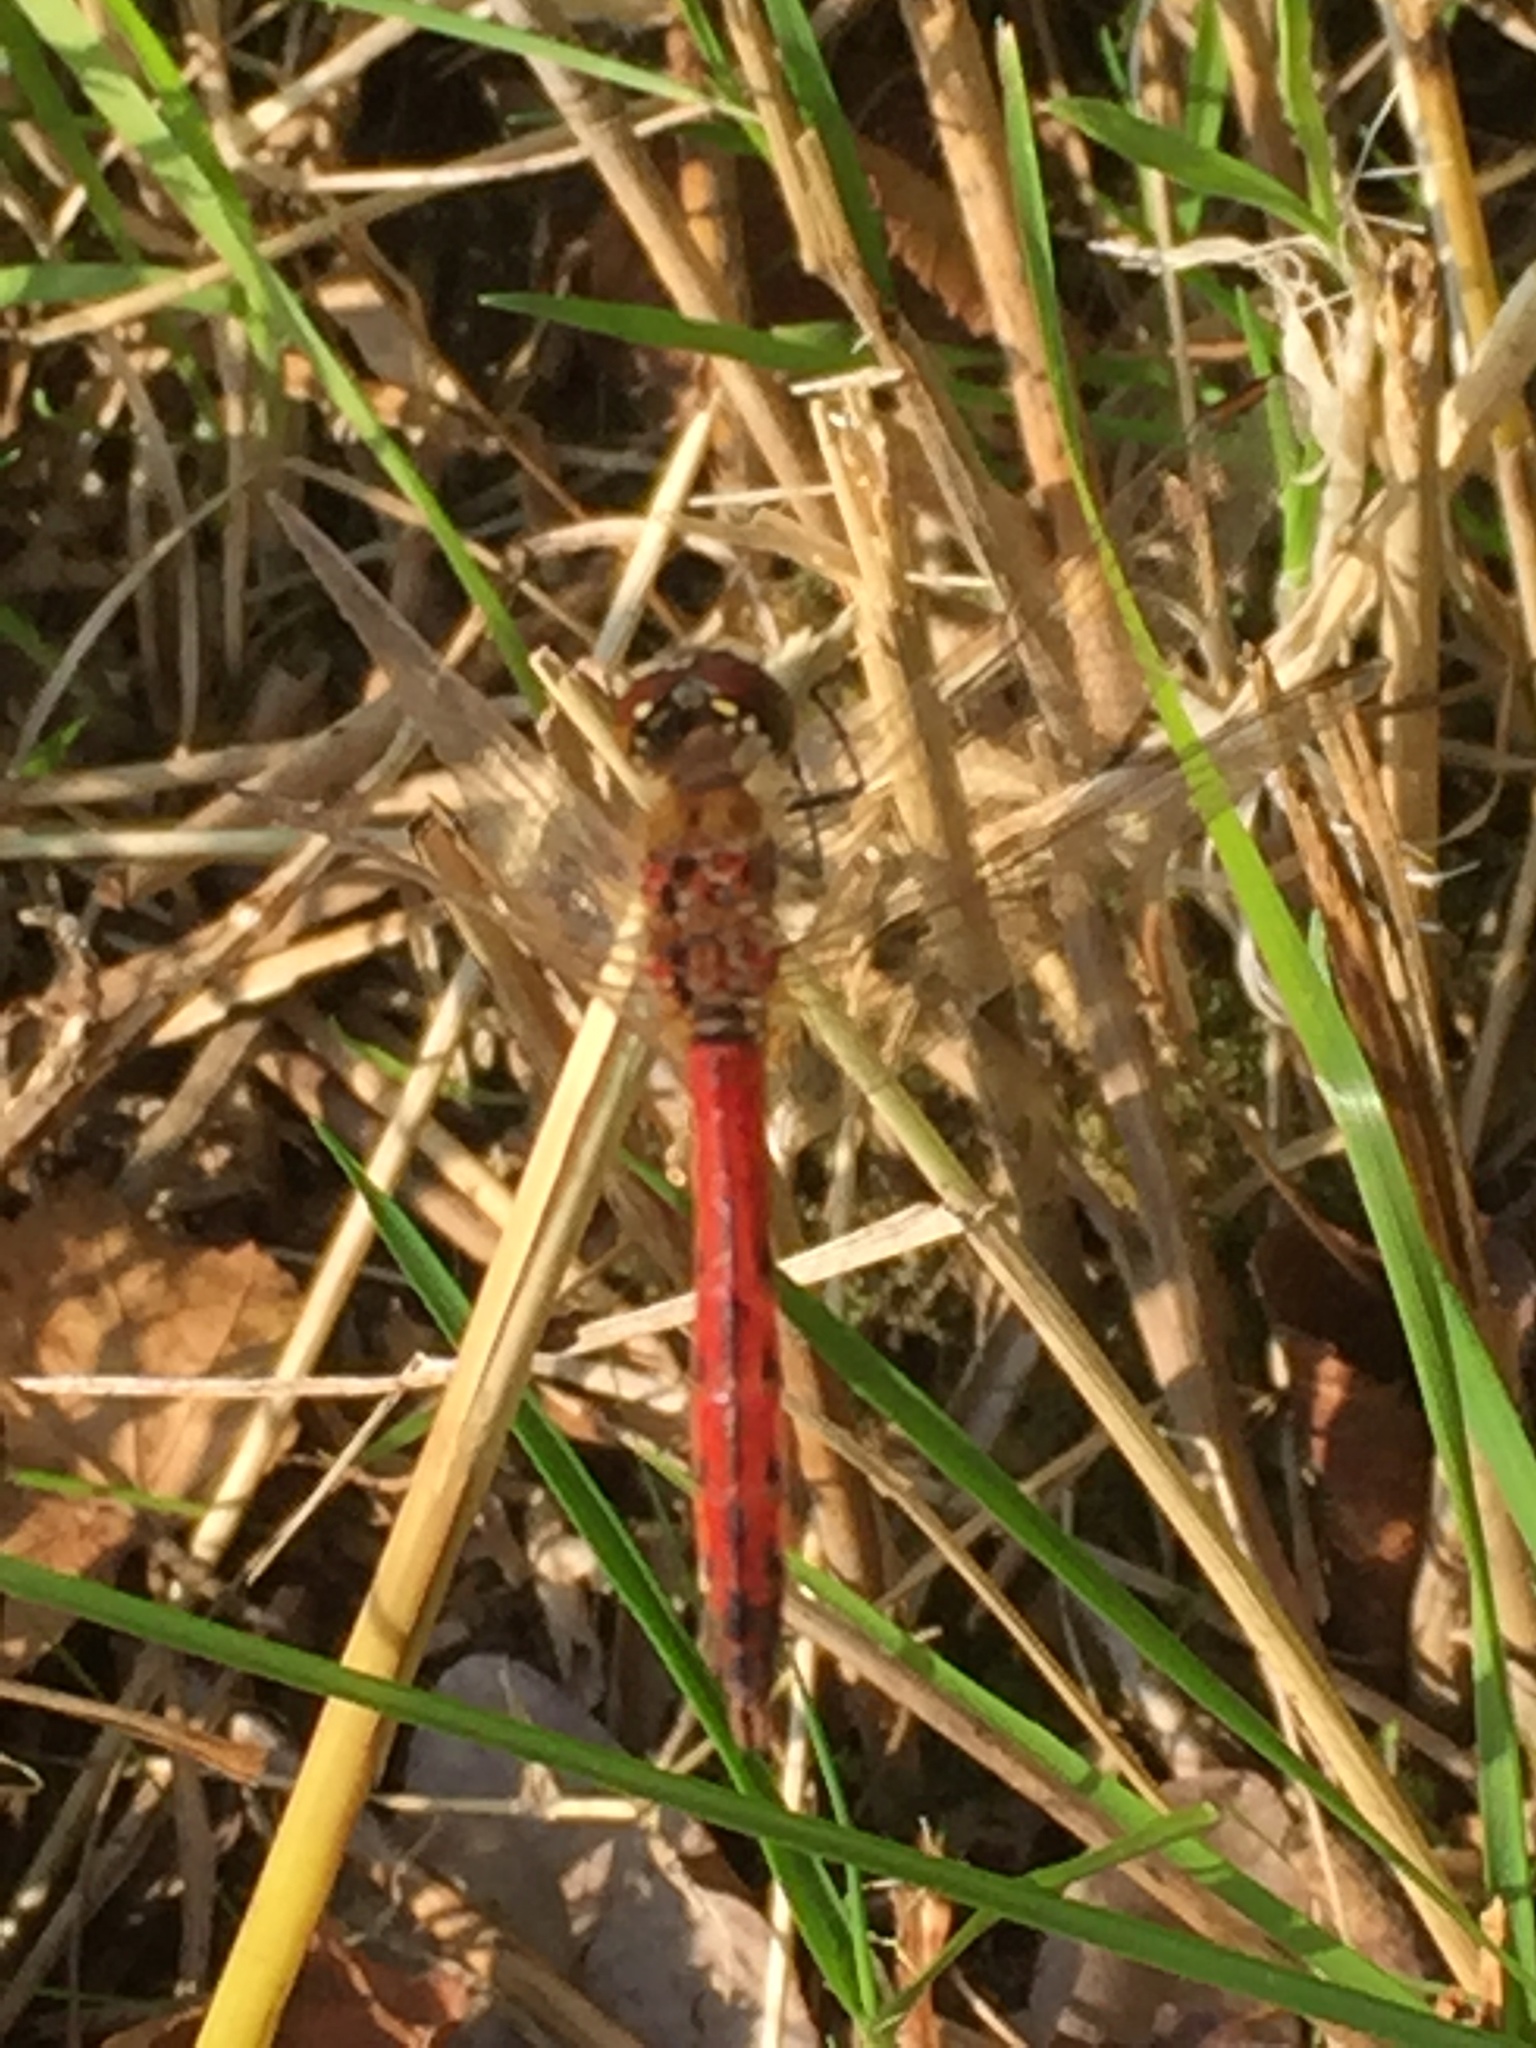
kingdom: Animalia
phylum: Arthropoda
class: Insecta
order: Odonata
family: Libellulidae
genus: Sympetrum
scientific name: Sympetrum depressiusculum
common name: Spotted darter
